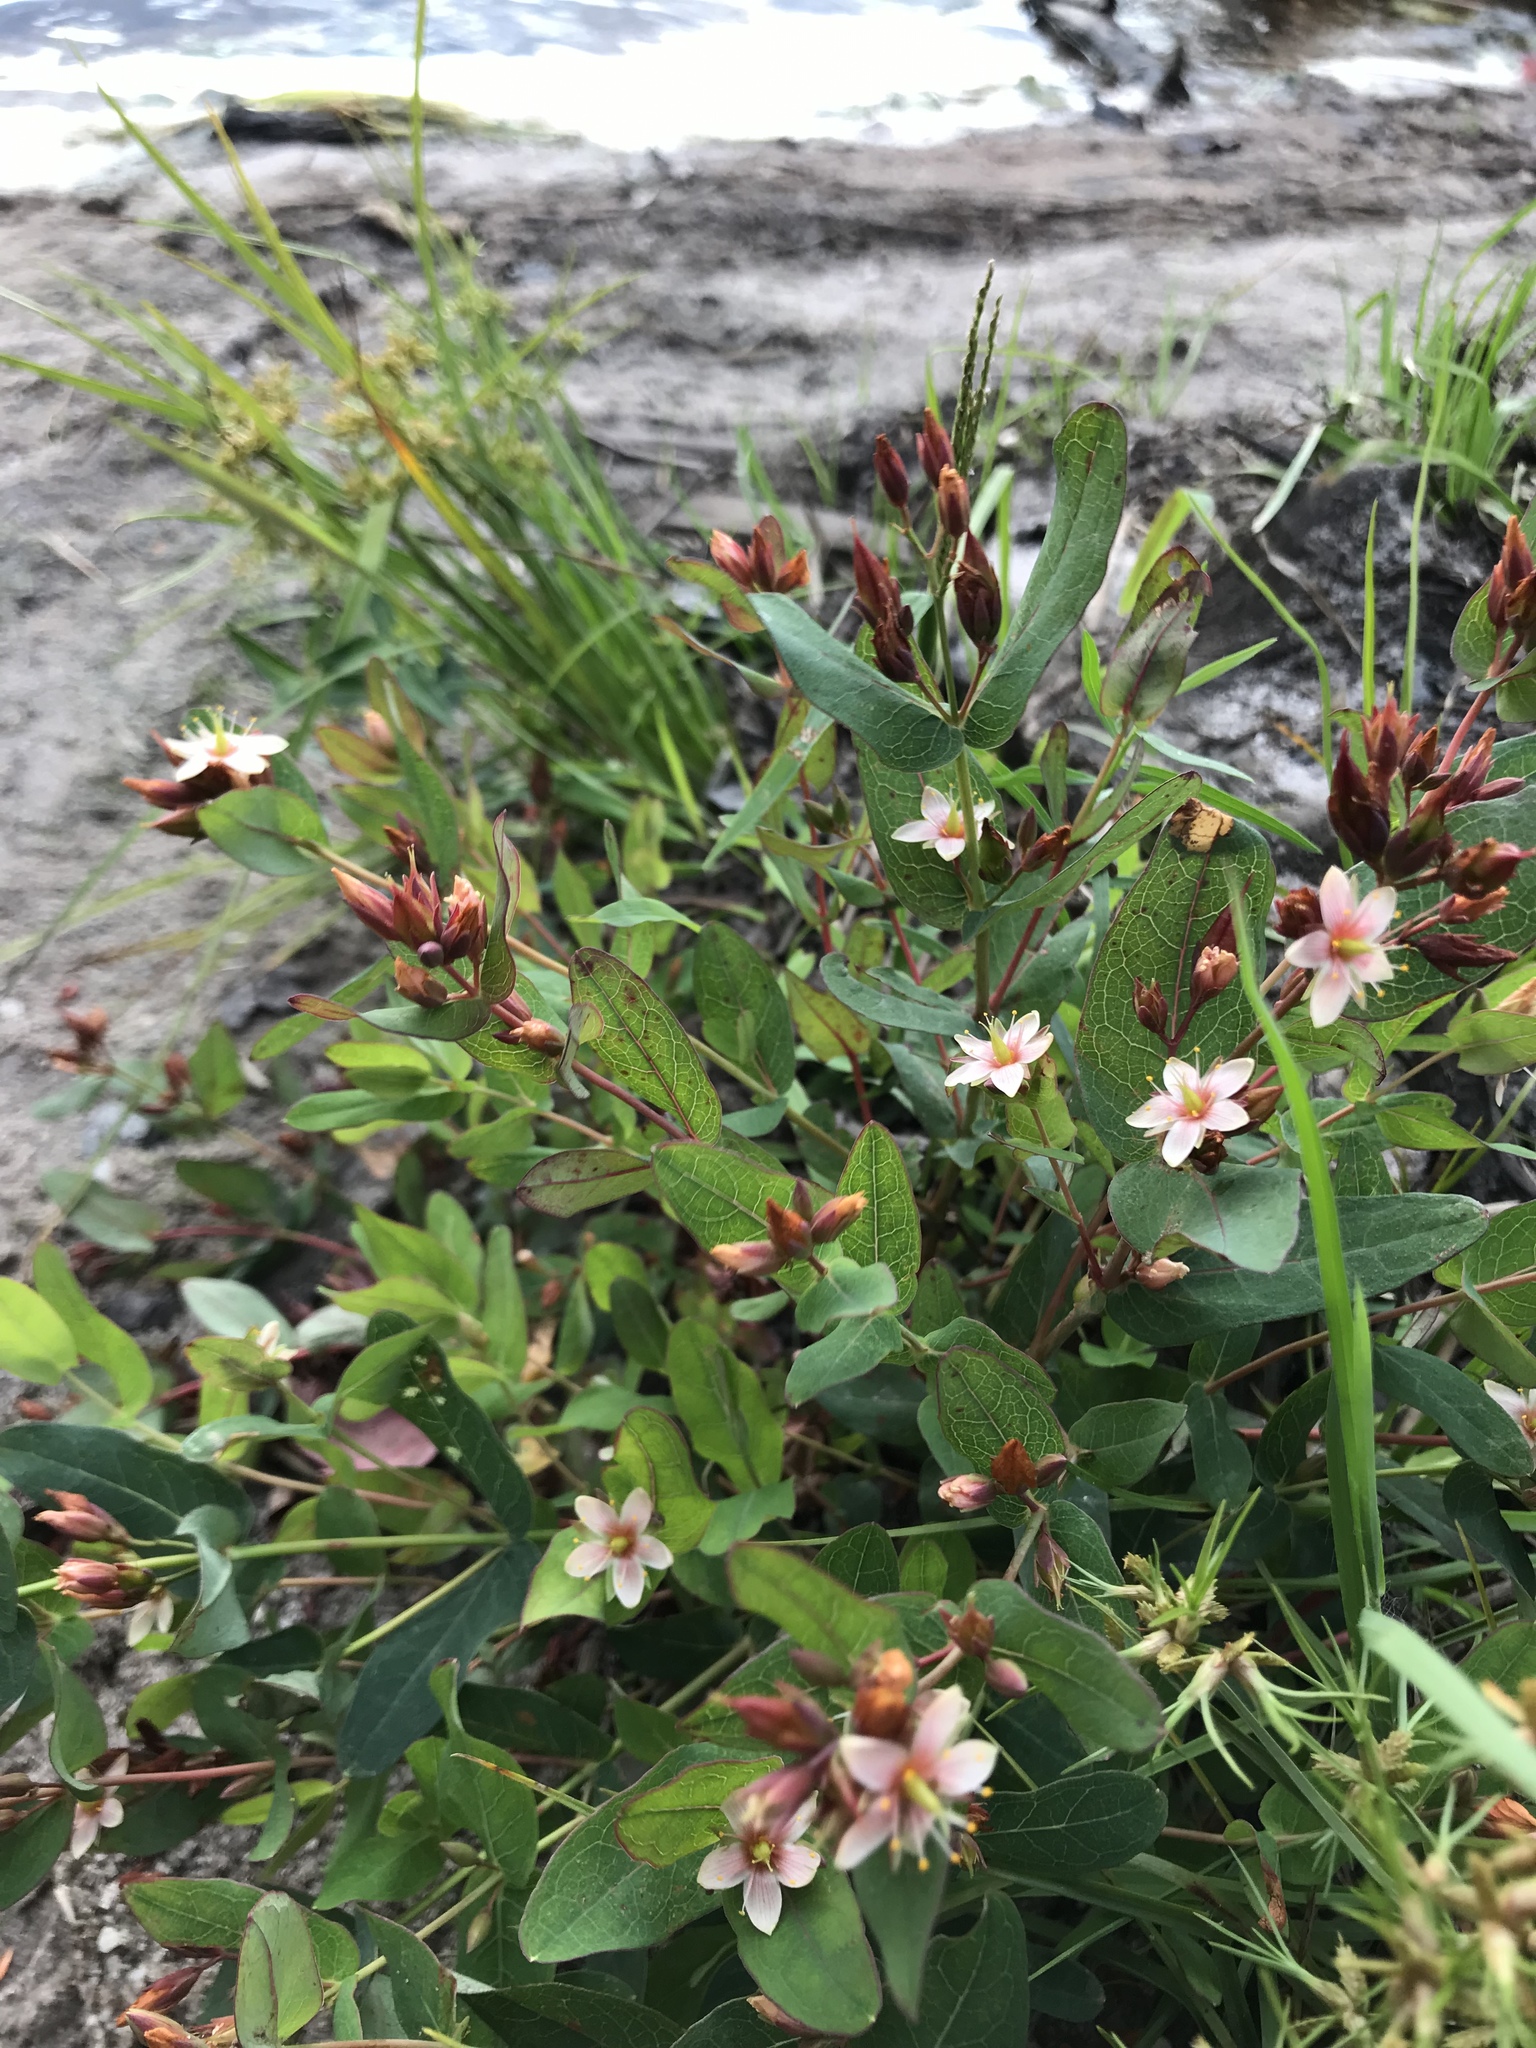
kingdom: Plantae
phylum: Tracheophyta
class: Magnoliopsida
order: Malpighiales
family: Hypericaceae
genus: Triadenum
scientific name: Triadenum virginicum
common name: Marsh st. john's-wort
